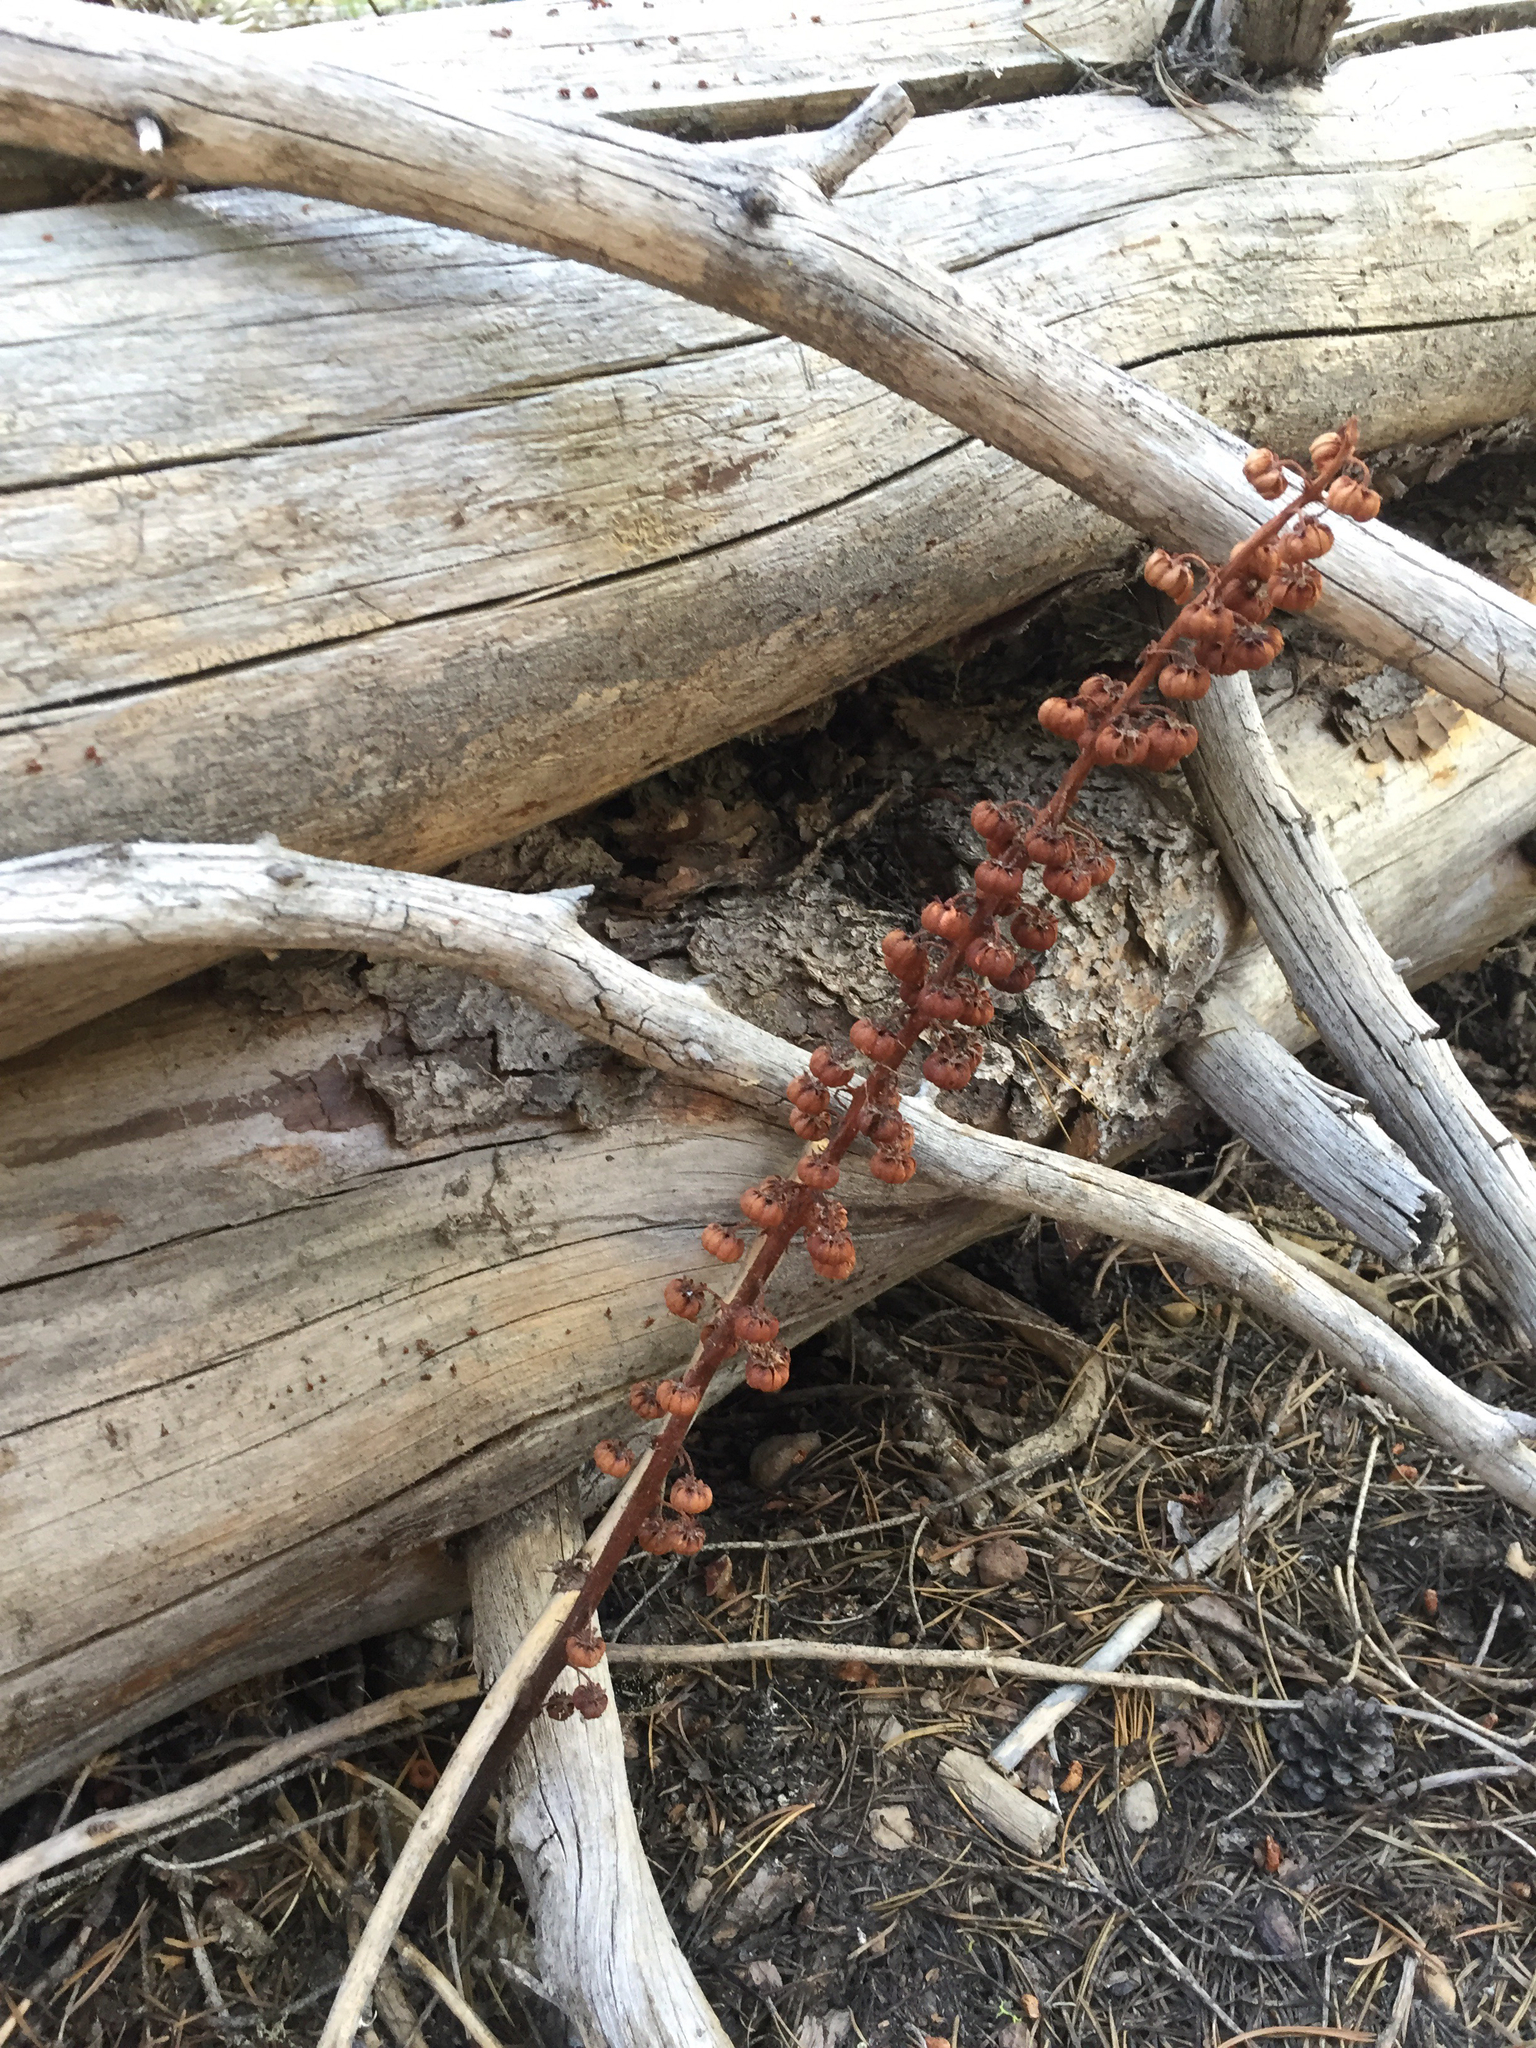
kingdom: Plantae
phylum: Tracheophyta
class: Magnoliopsida
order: Ericales
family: Ericaceae
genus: Pterospora
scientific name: Pterospora andromedea
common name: Giant bird's-nest
